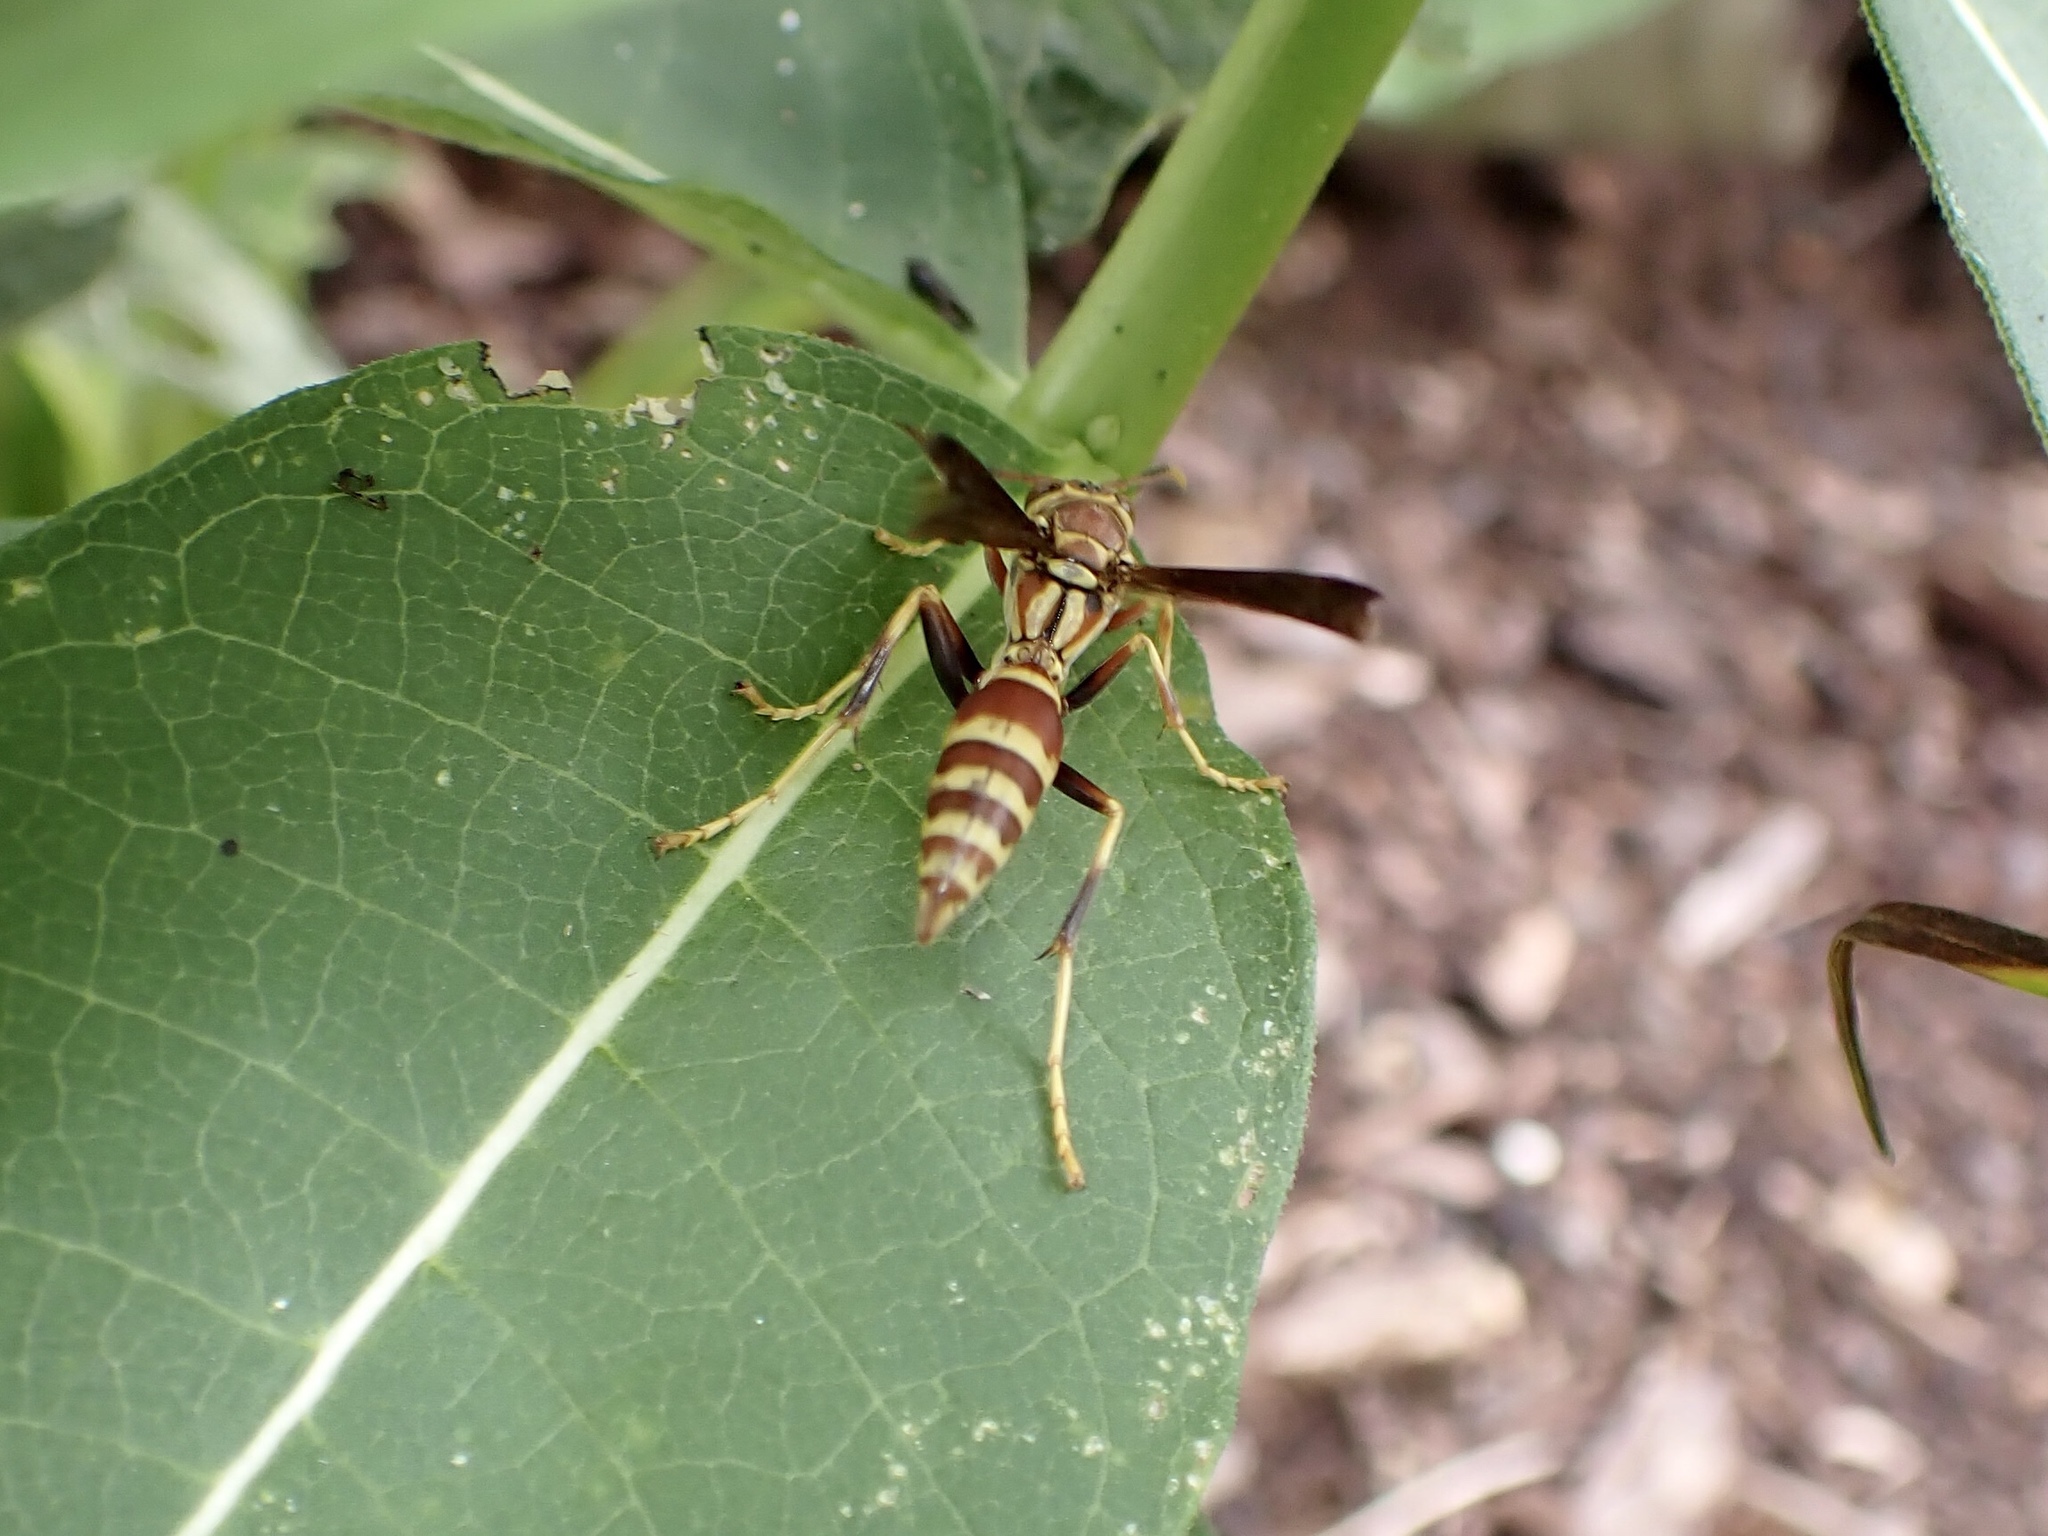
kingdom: Animalia
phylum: Arthropoda
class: Insecta
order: Hymenoptera
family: Eumenidae
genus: Polistes
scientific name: Polistes exclamans
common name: Paper wasp
